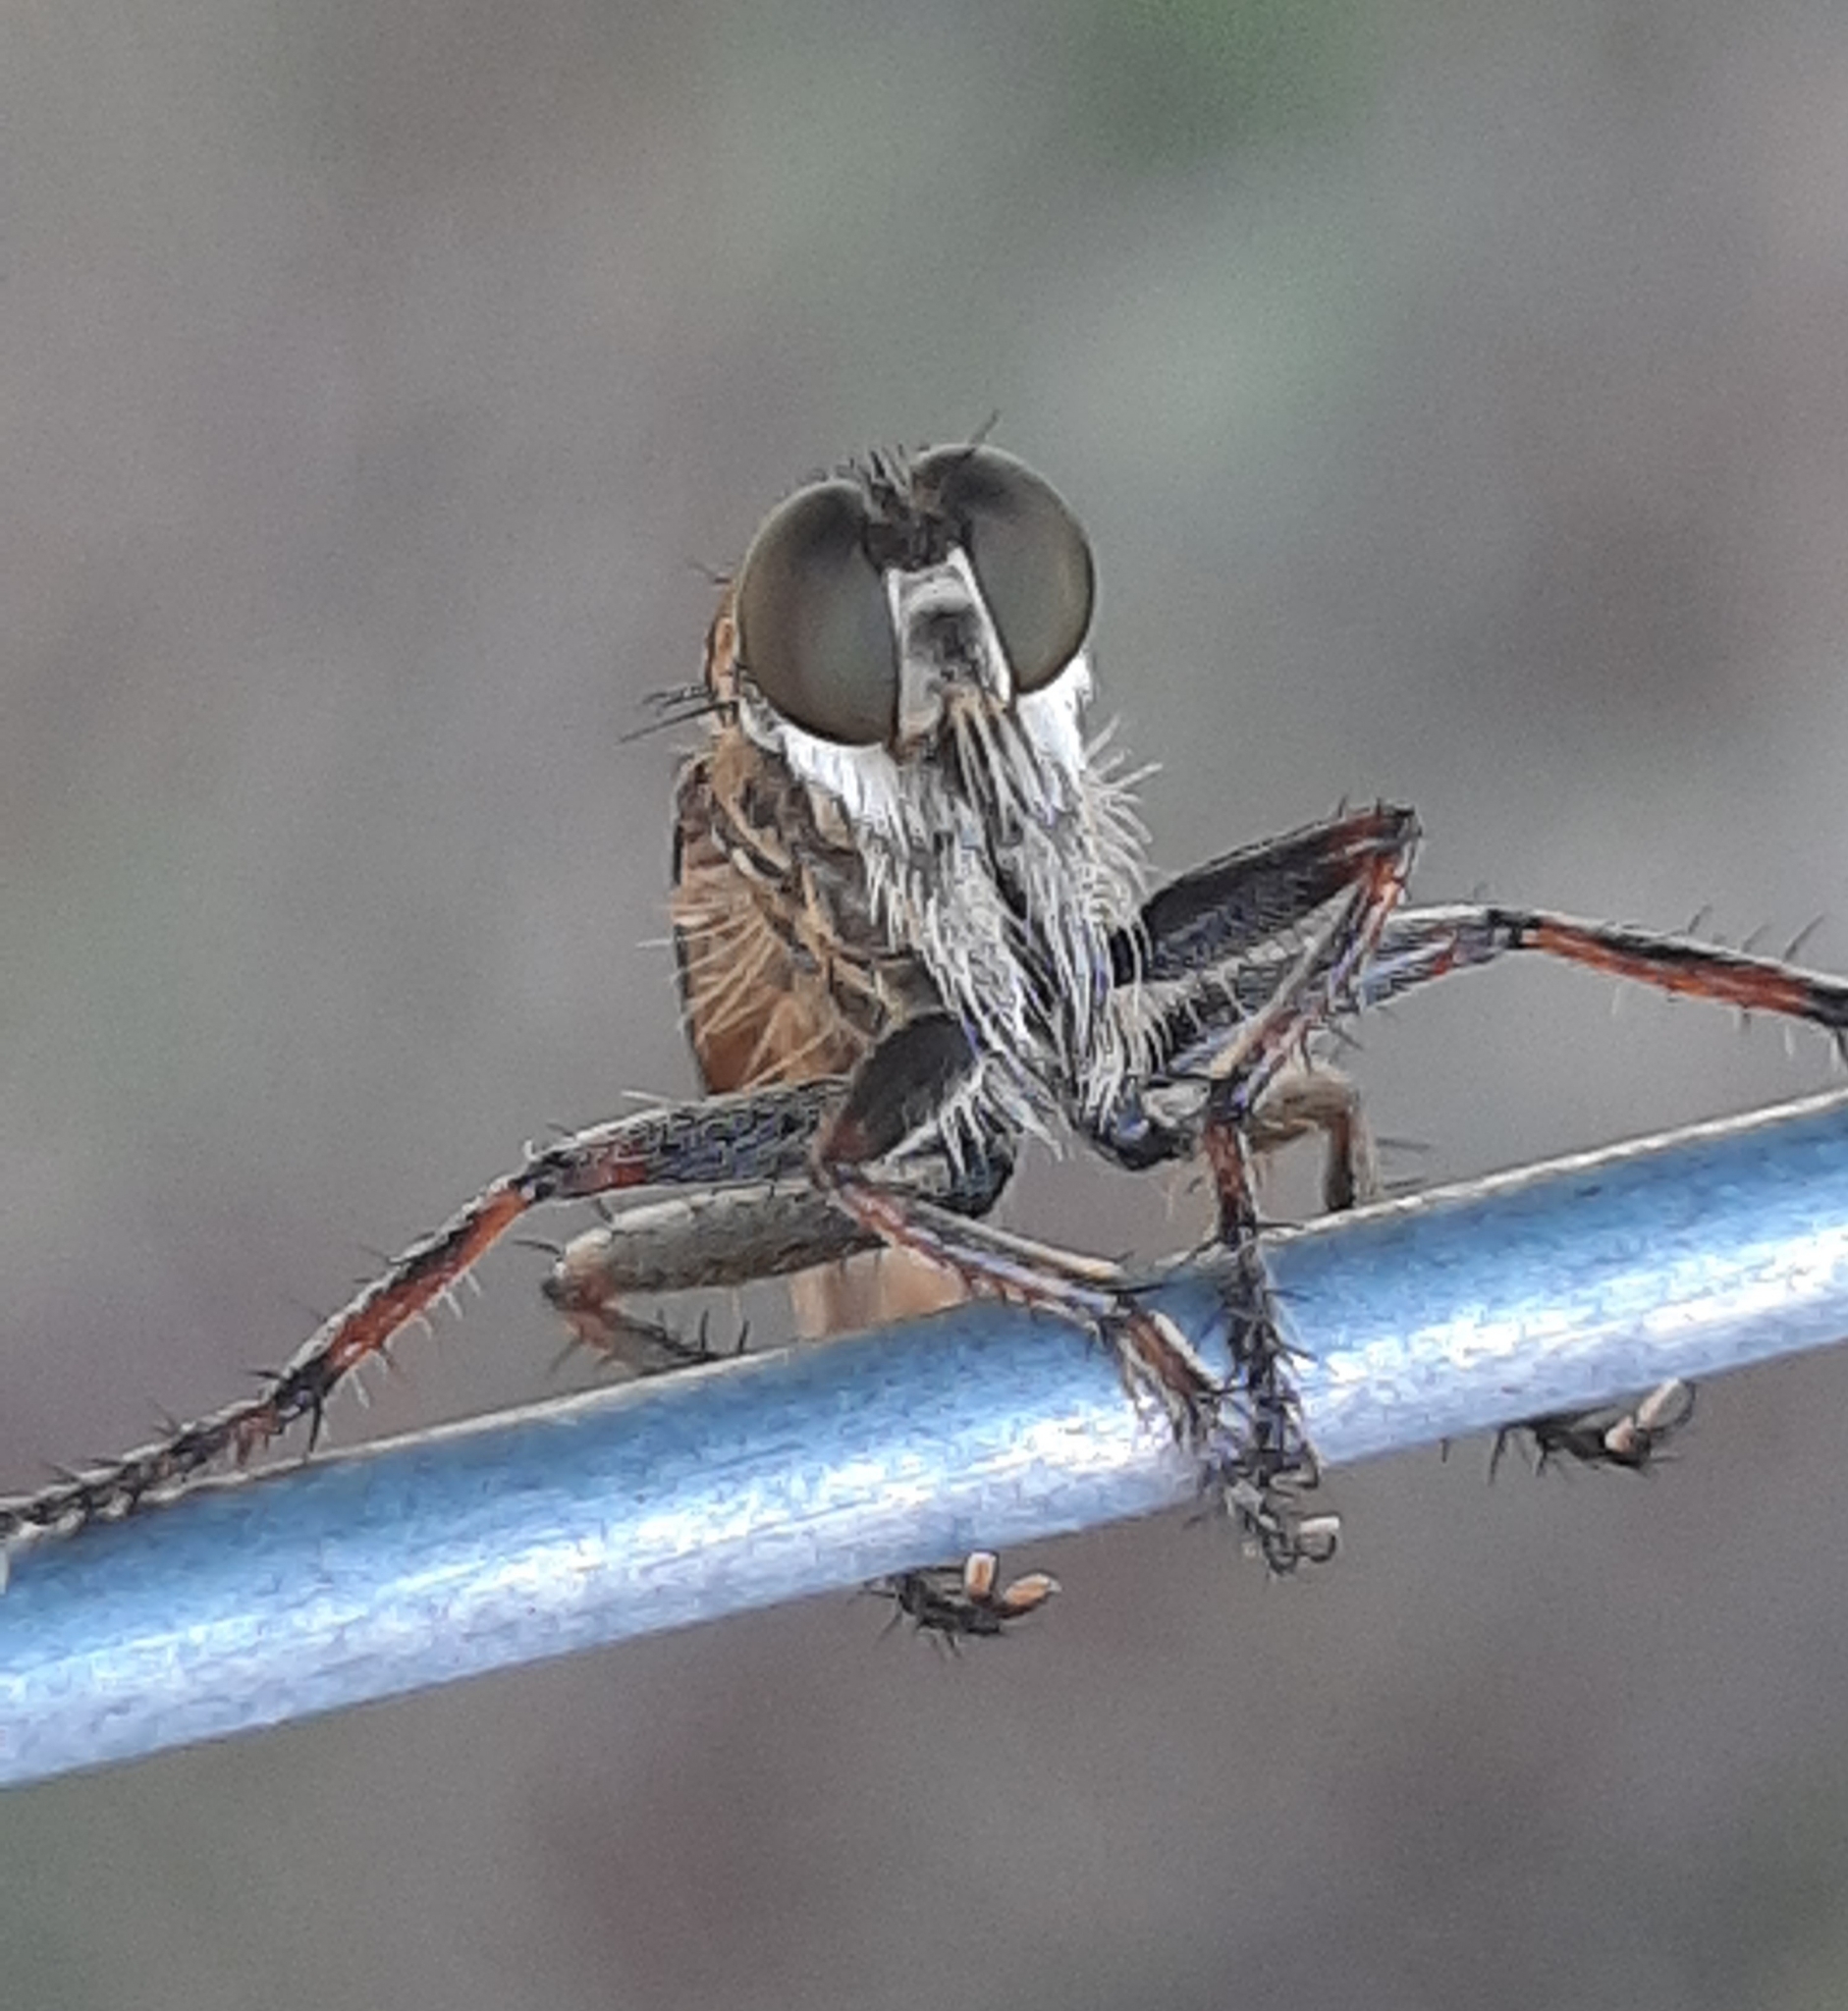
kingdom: Animalia
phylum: Arthropoda
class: Insecta
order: Diptera
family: Asilidae
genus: Machimus
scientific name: Machimus snowii
